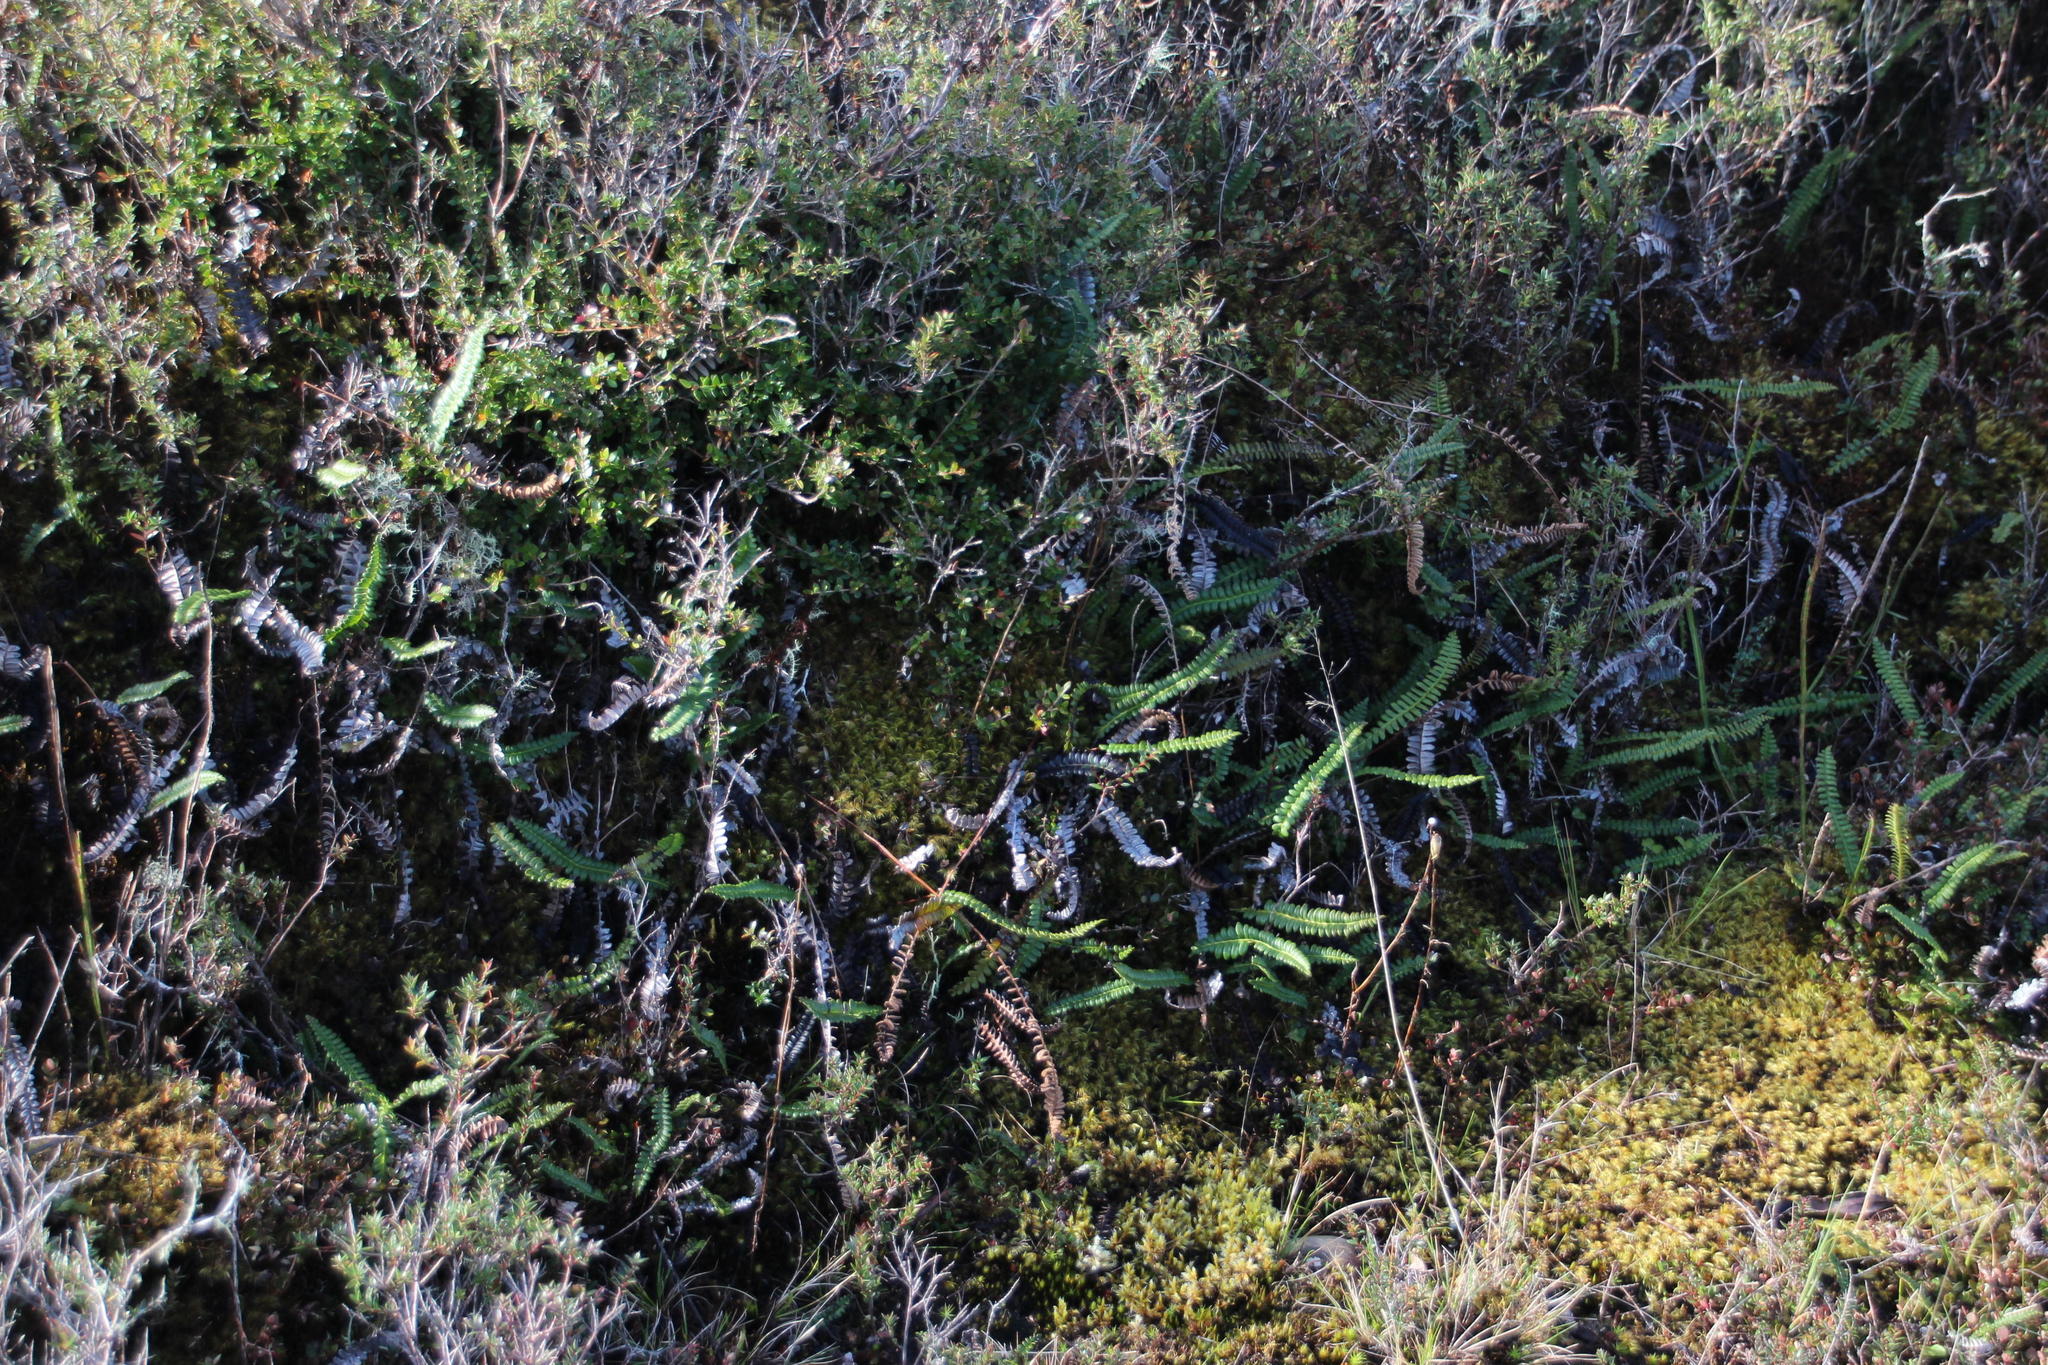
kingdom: Plantae
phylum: Tracheophyta
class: Polypodiopsida
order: Polypodiales
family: Blechnaceae
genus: Austroblechnum
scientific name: Austroblechnum lechleri
